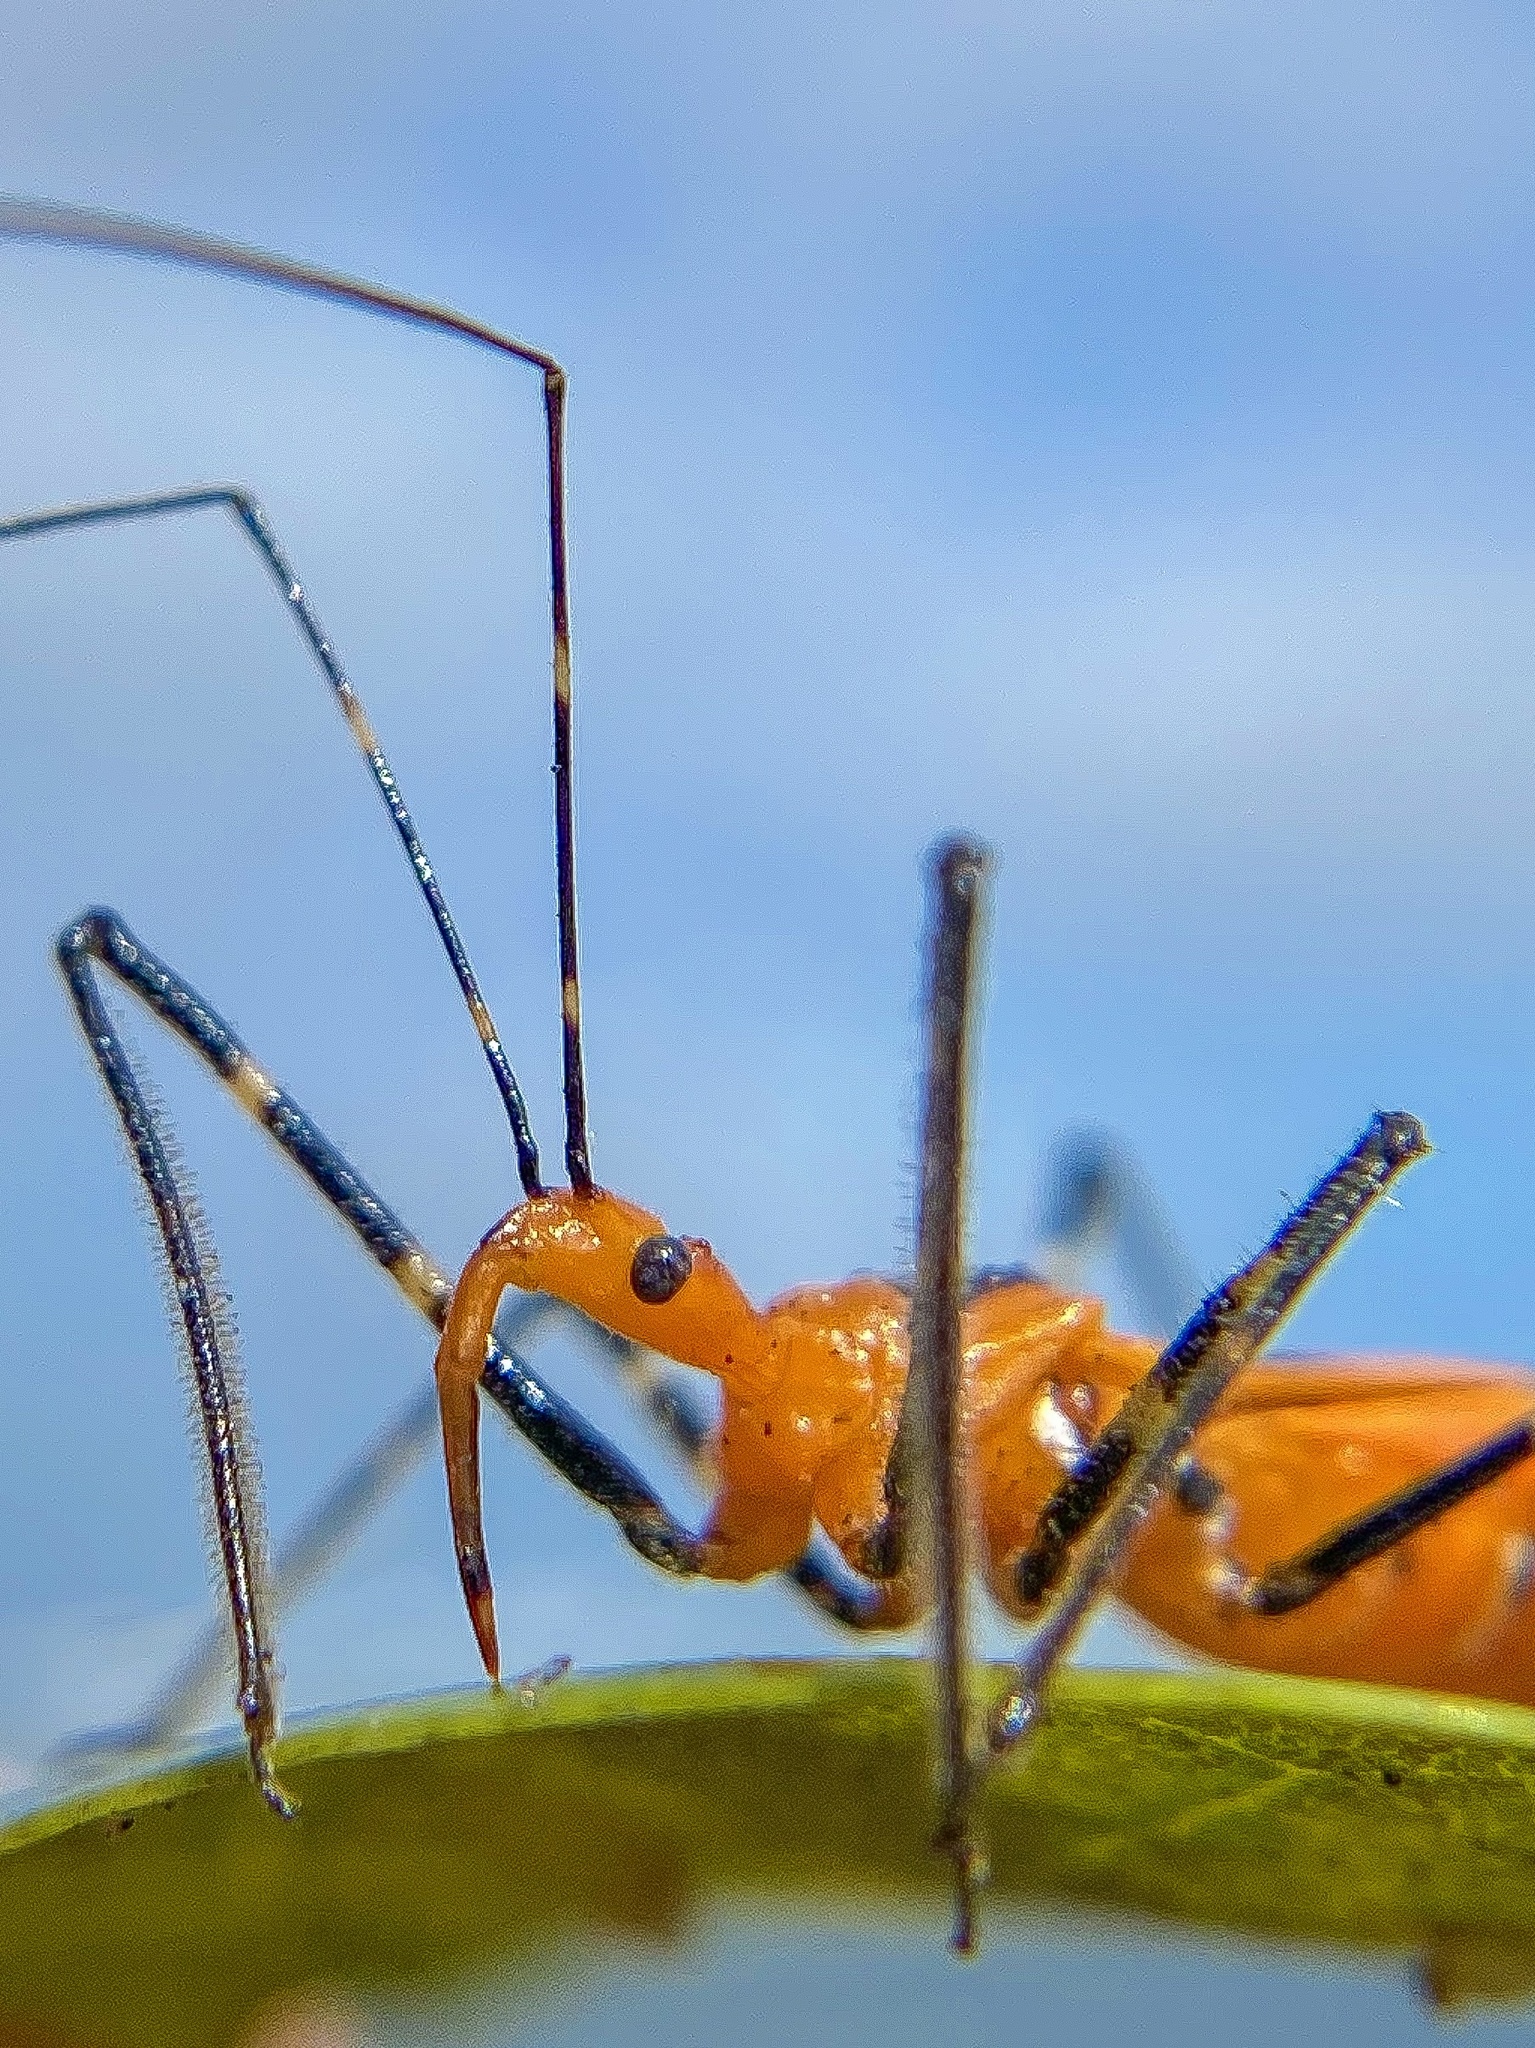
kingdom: Animalia
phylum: Arthropoda
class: Insecta
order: Hemiptera
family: Reduviidae
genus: Zelus
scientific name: Zelus longipes
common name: Milkweed assassin bug
